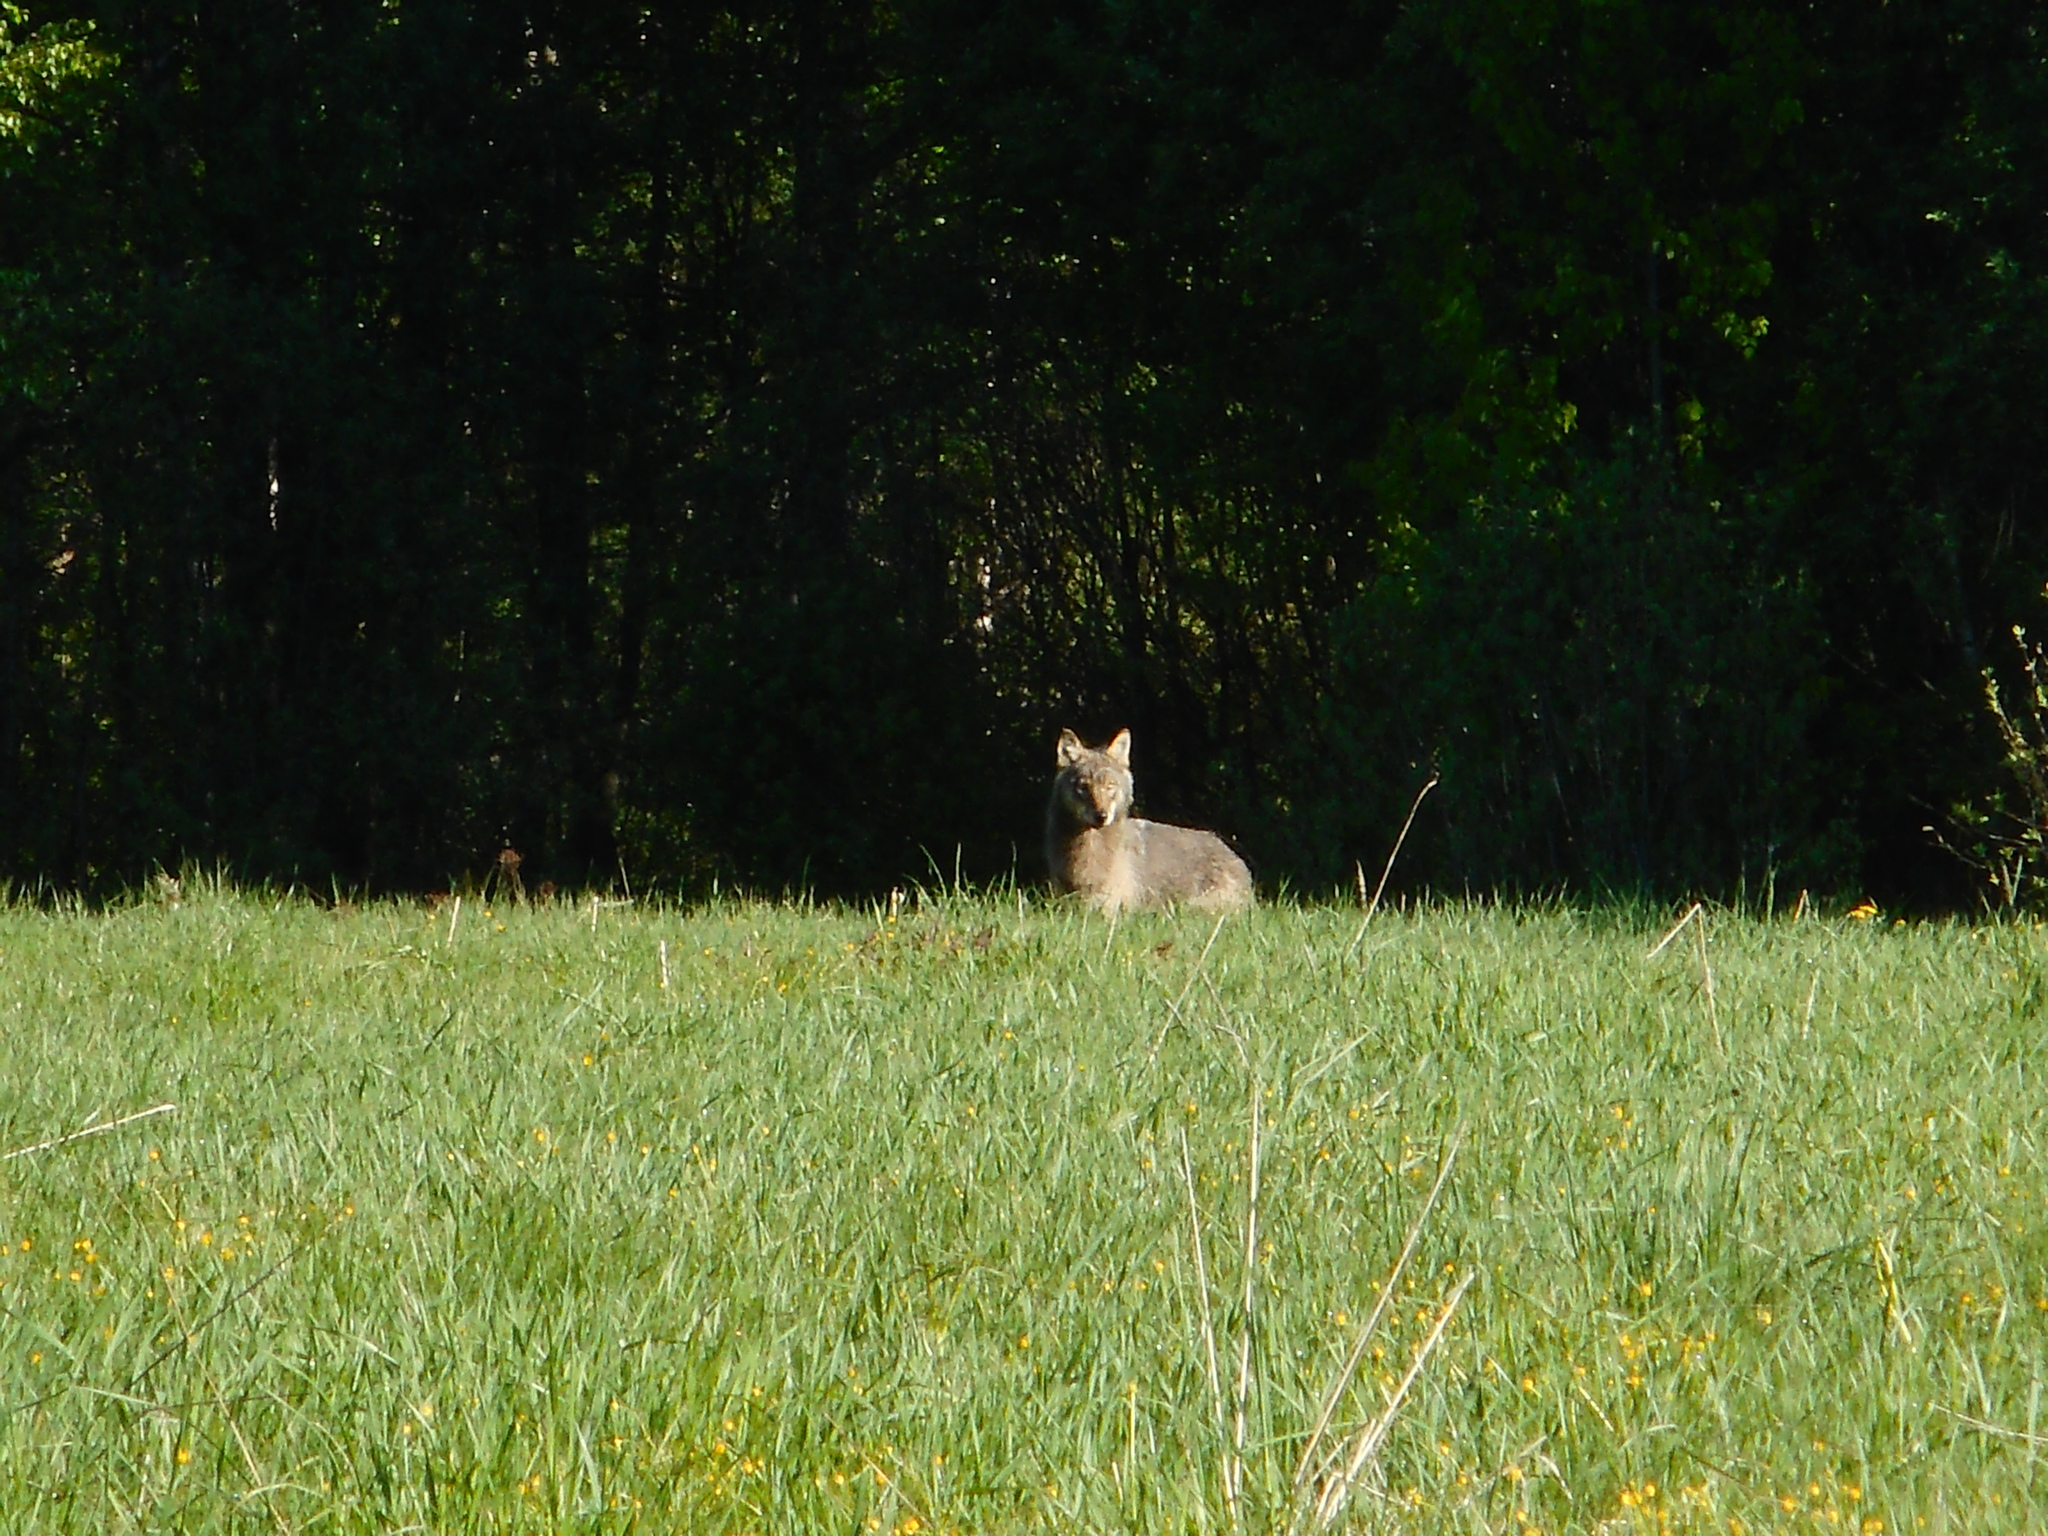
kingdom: Animalia
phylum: Chordata
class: Mammalia
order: Carnivora
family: Canidae
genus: Canis
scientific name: Canis lupus
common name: Gray wolf
